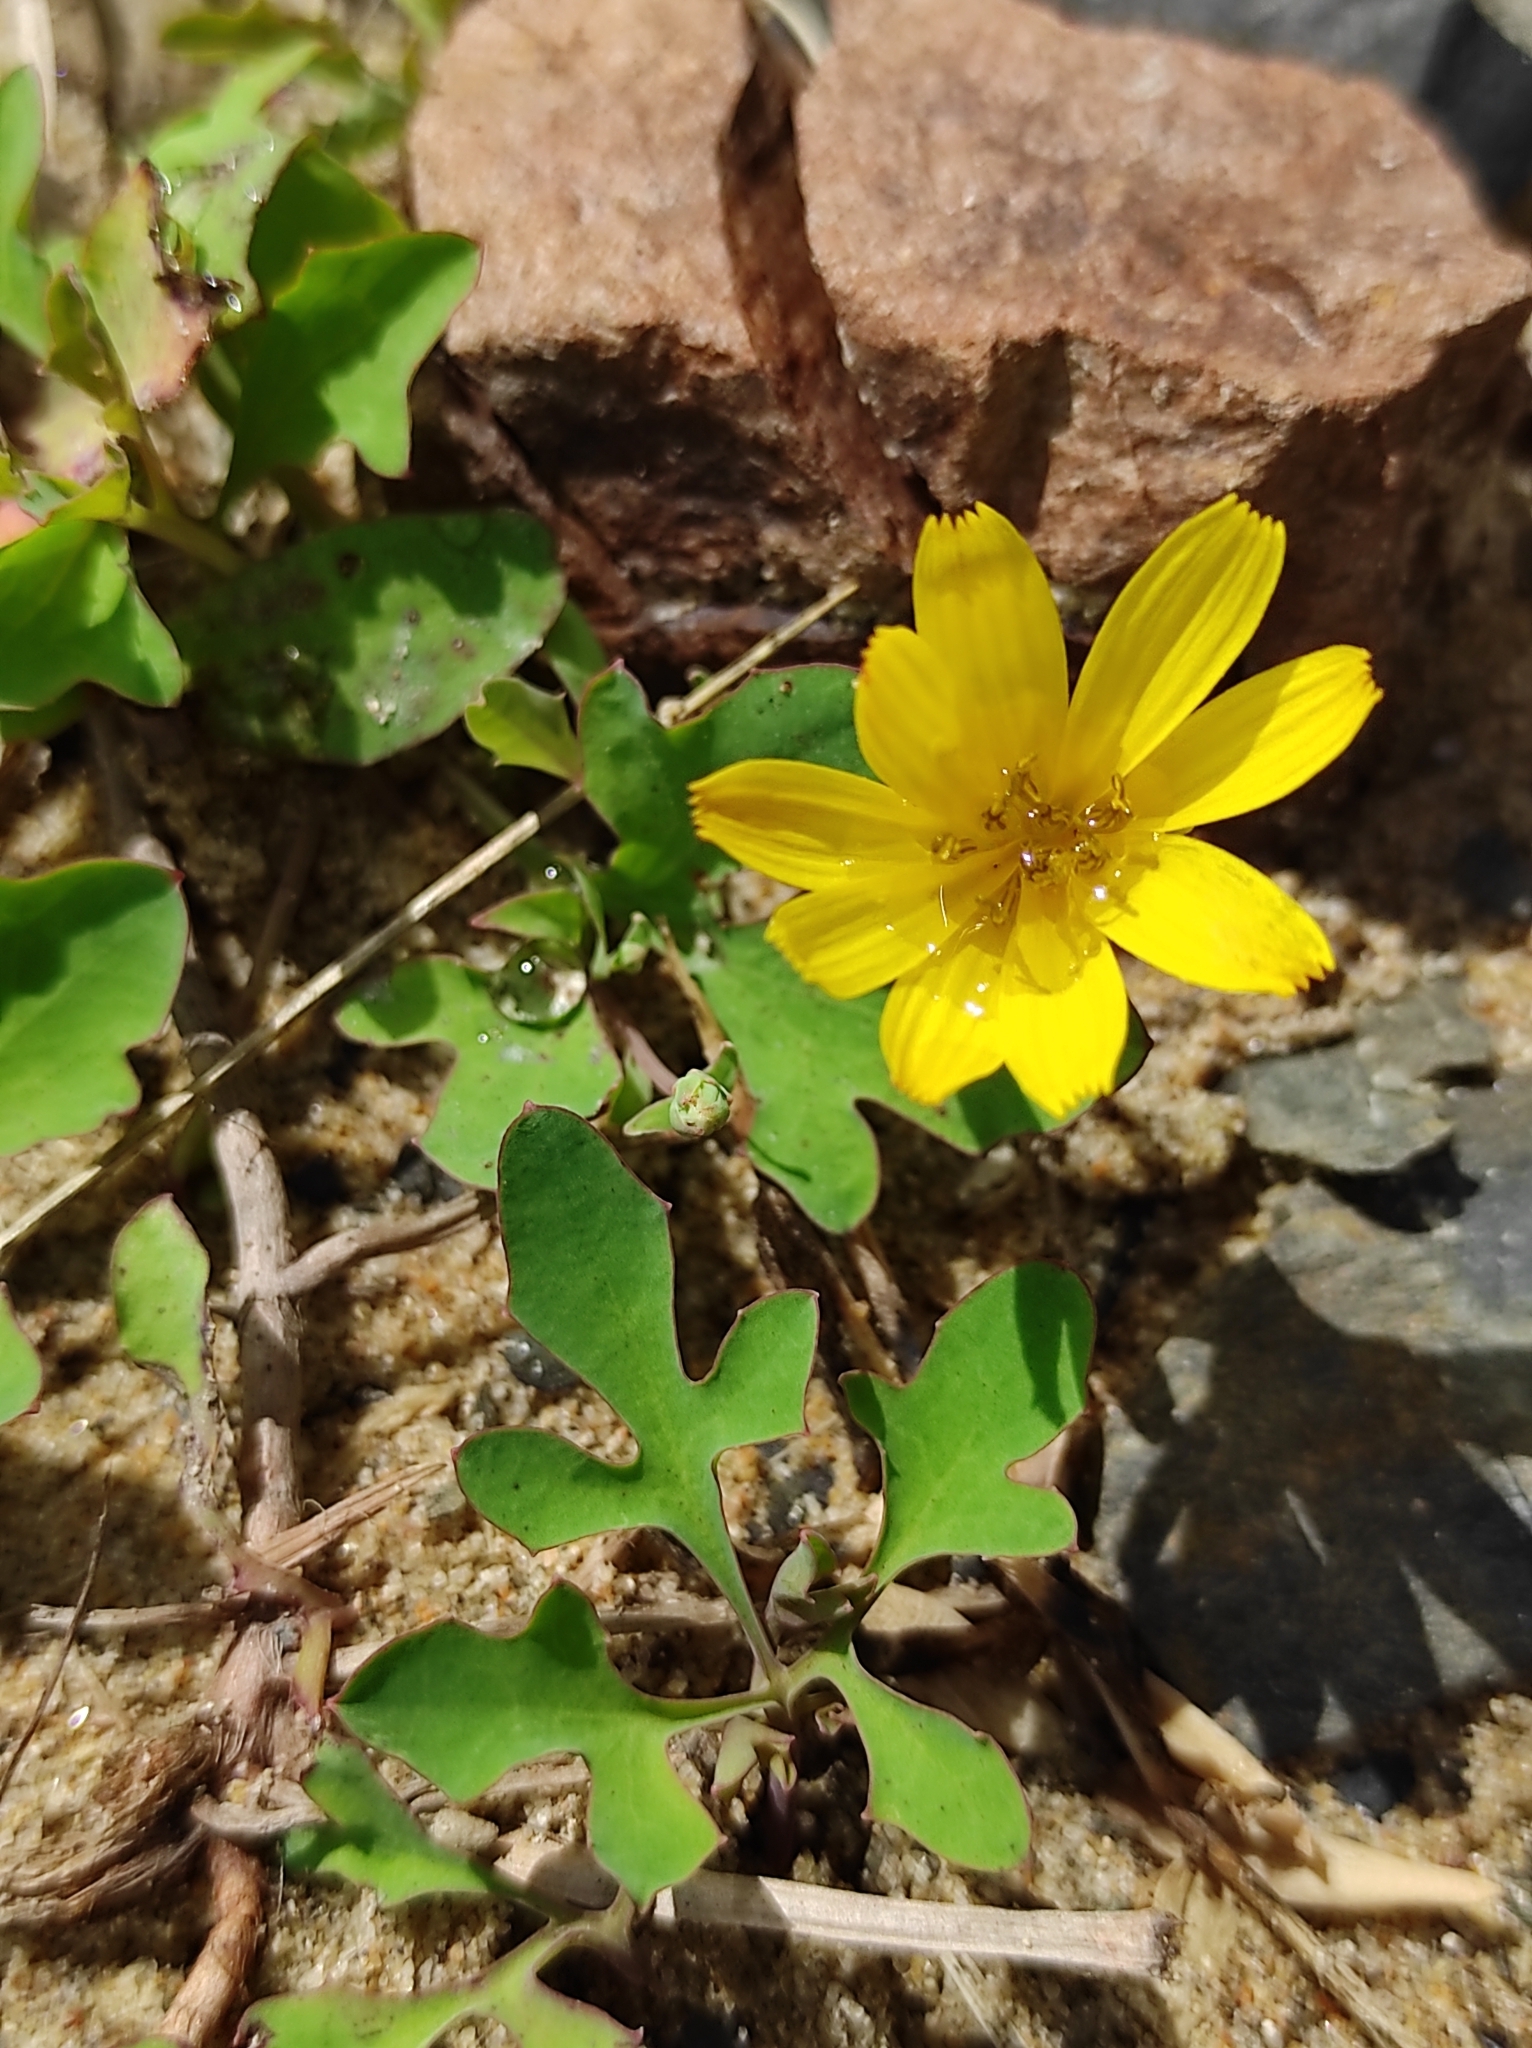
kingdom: Plantae
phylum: Tracheophyta
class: Magnoliopsida
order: Asterales
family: Asteraceae
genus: Ixeris
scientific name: Ixeris repens
